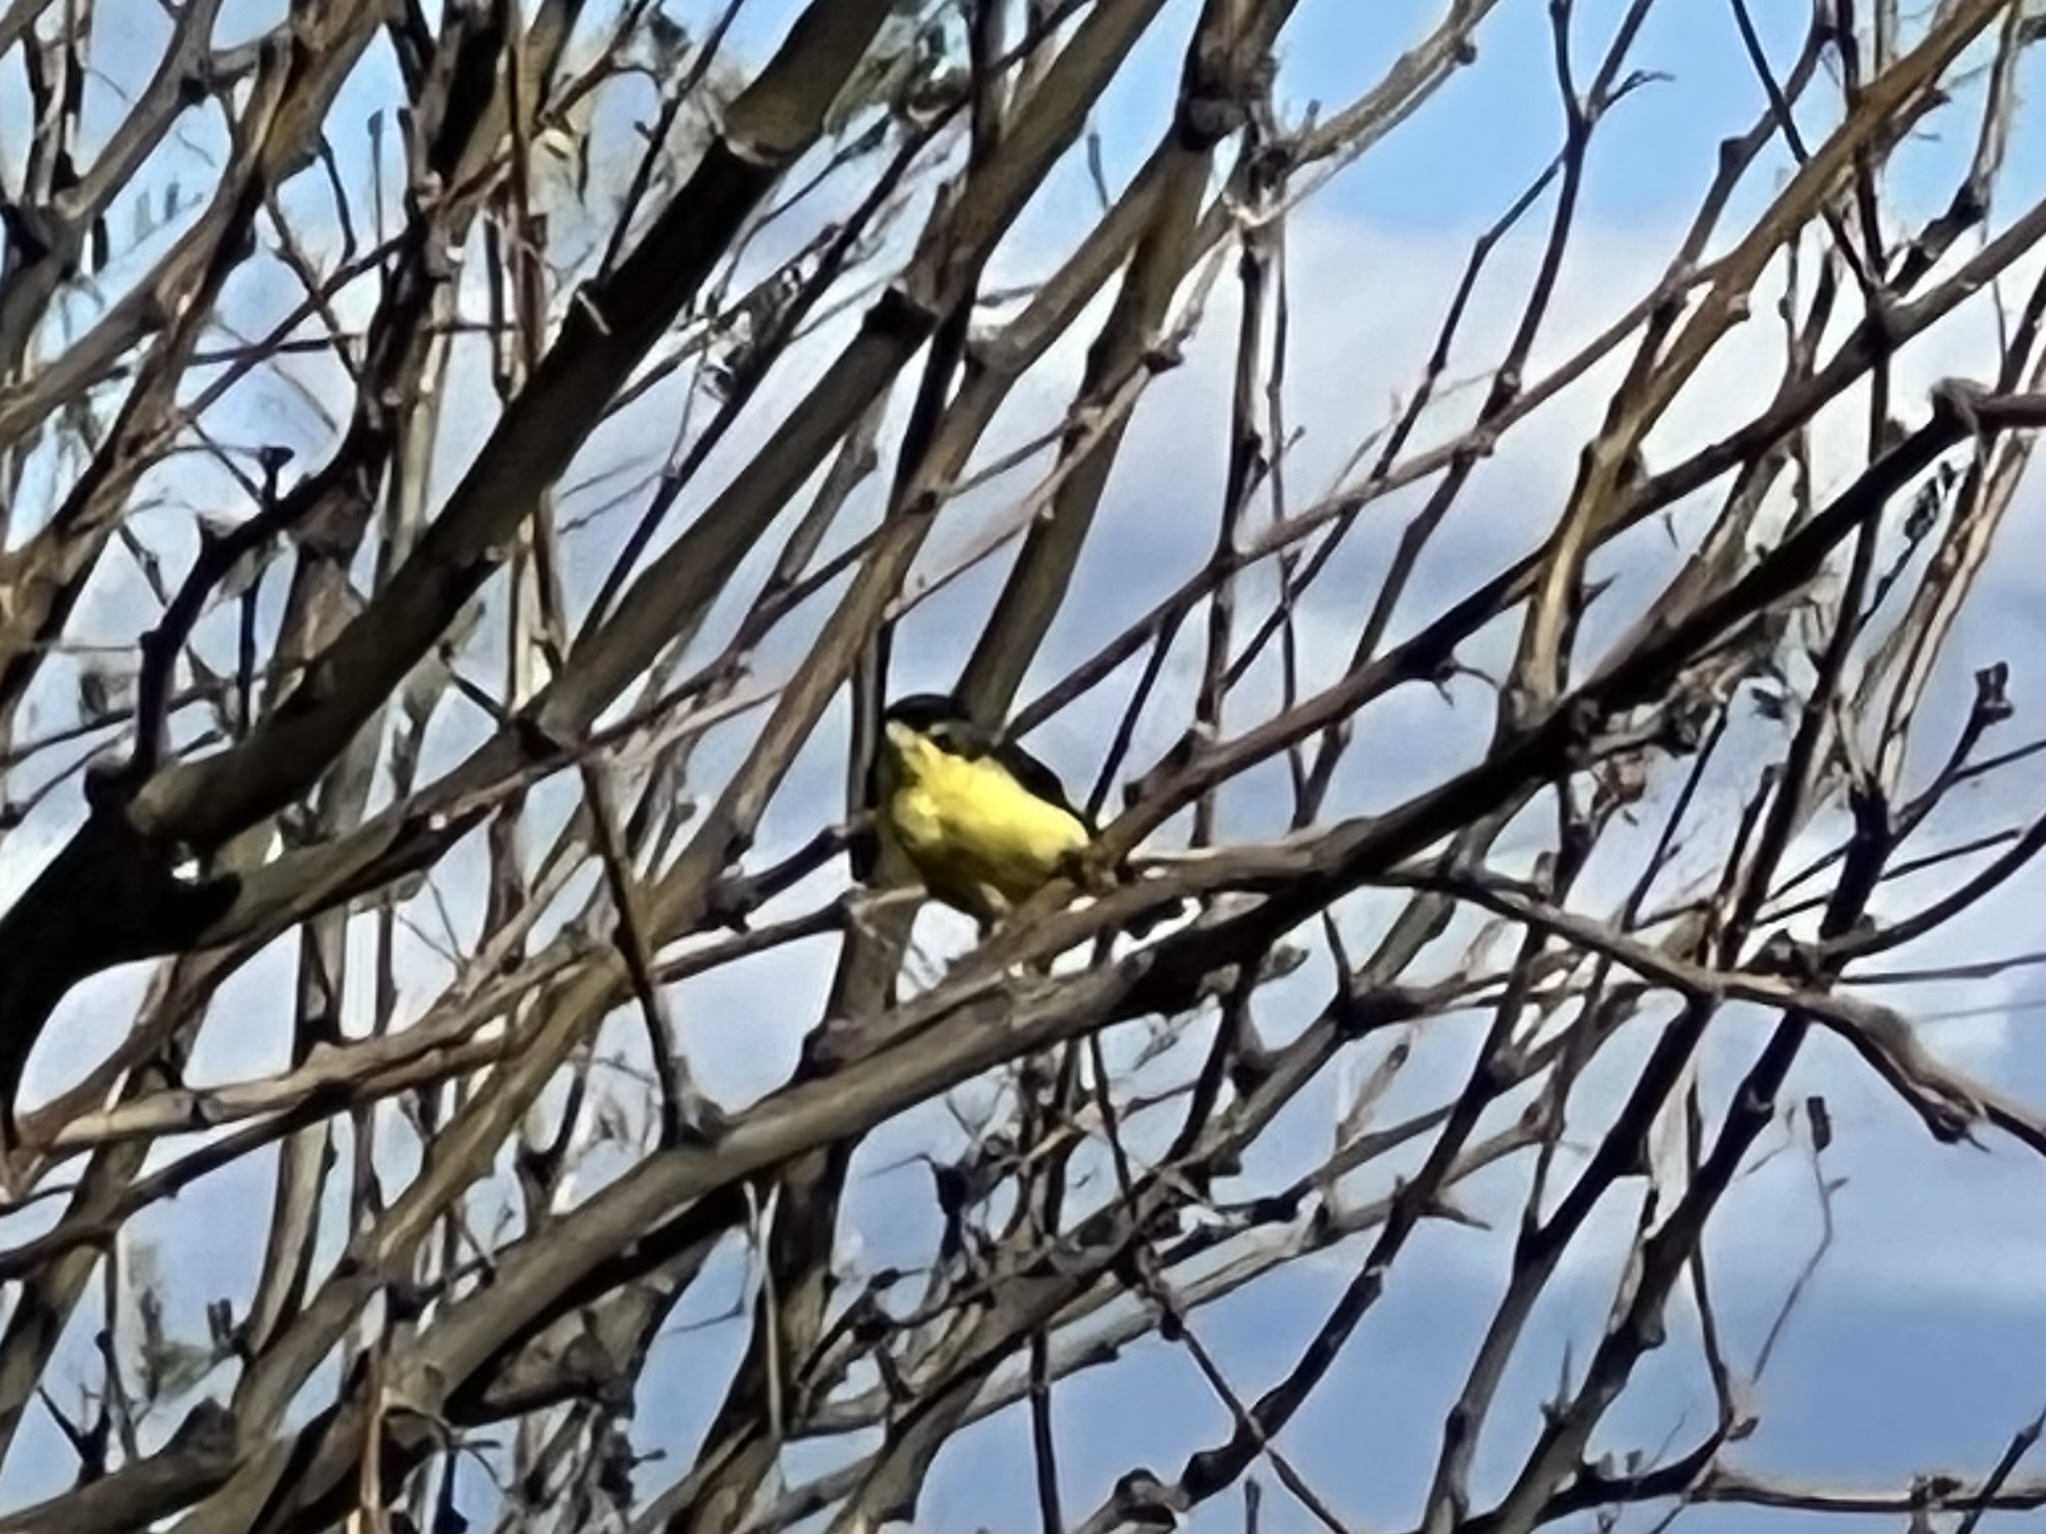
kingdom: Animalia
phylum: Chordata
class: Aves
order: Passeriformes
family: Fringillidae
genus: Spinus
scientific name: Spinus psaltria
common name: Lesser goldfinch
